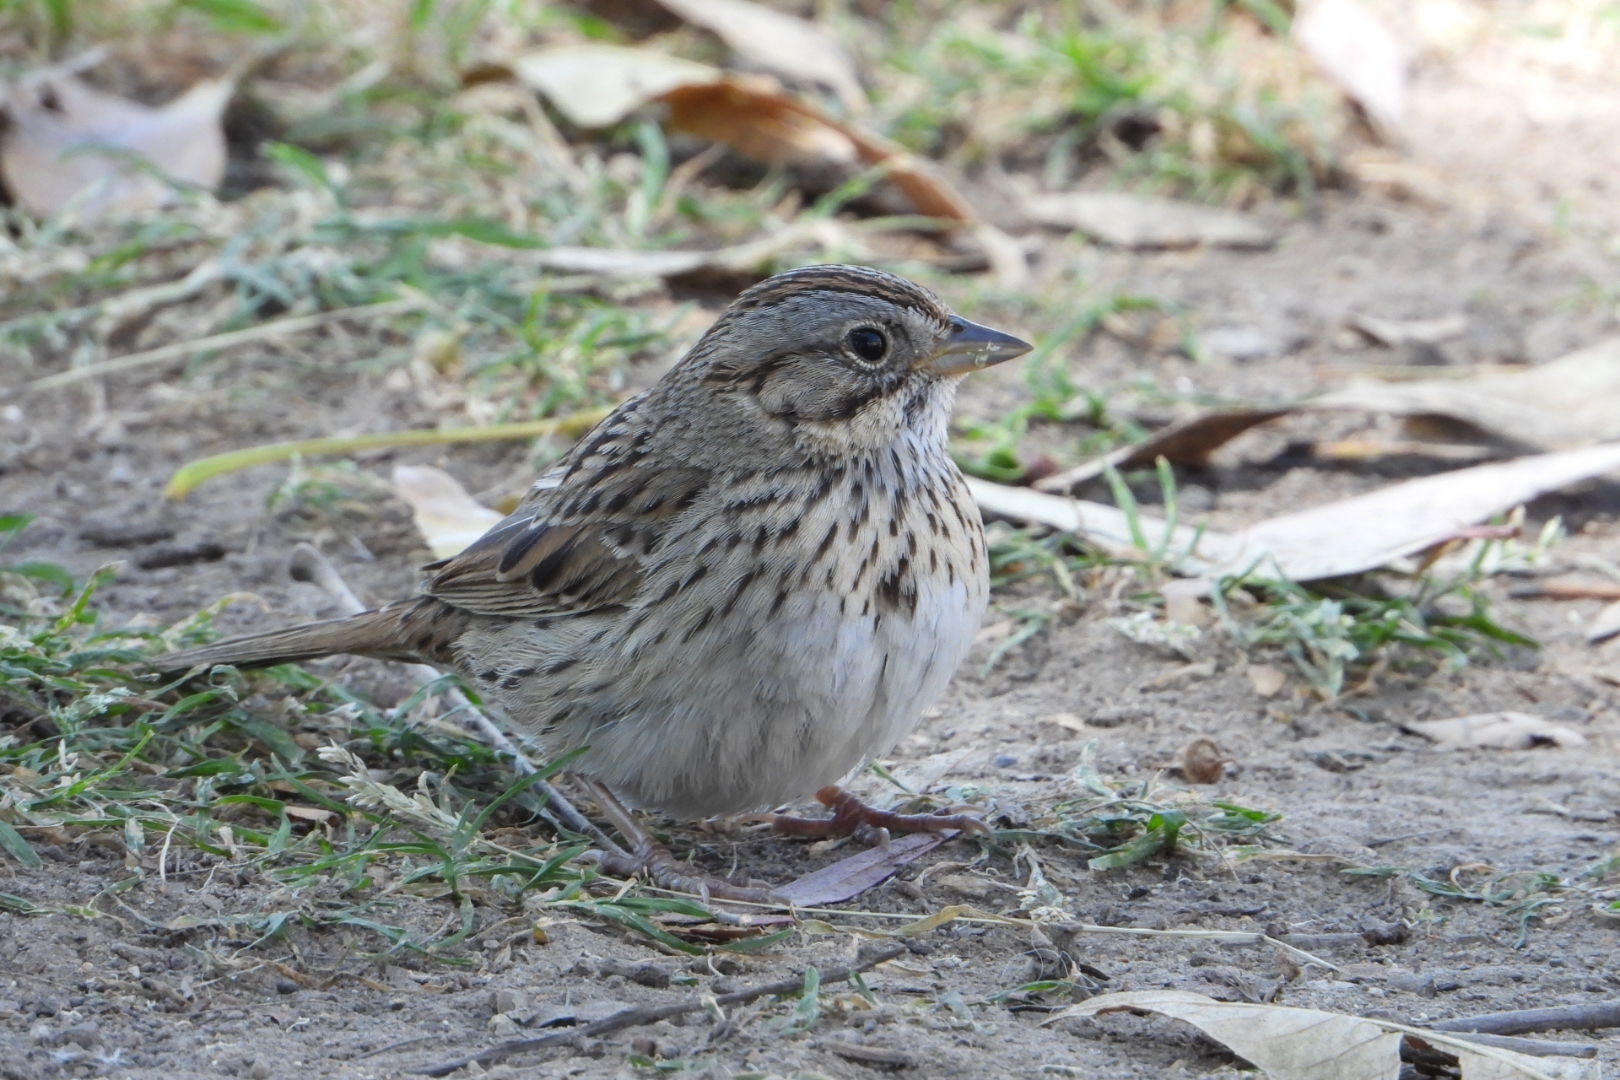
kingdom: Animalia
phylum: Chordata
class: Aves
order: Passeriformes
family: Passerellidae
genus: Melospiza
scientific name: Melospiza lincolnii
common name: Lincoln's sparrow
